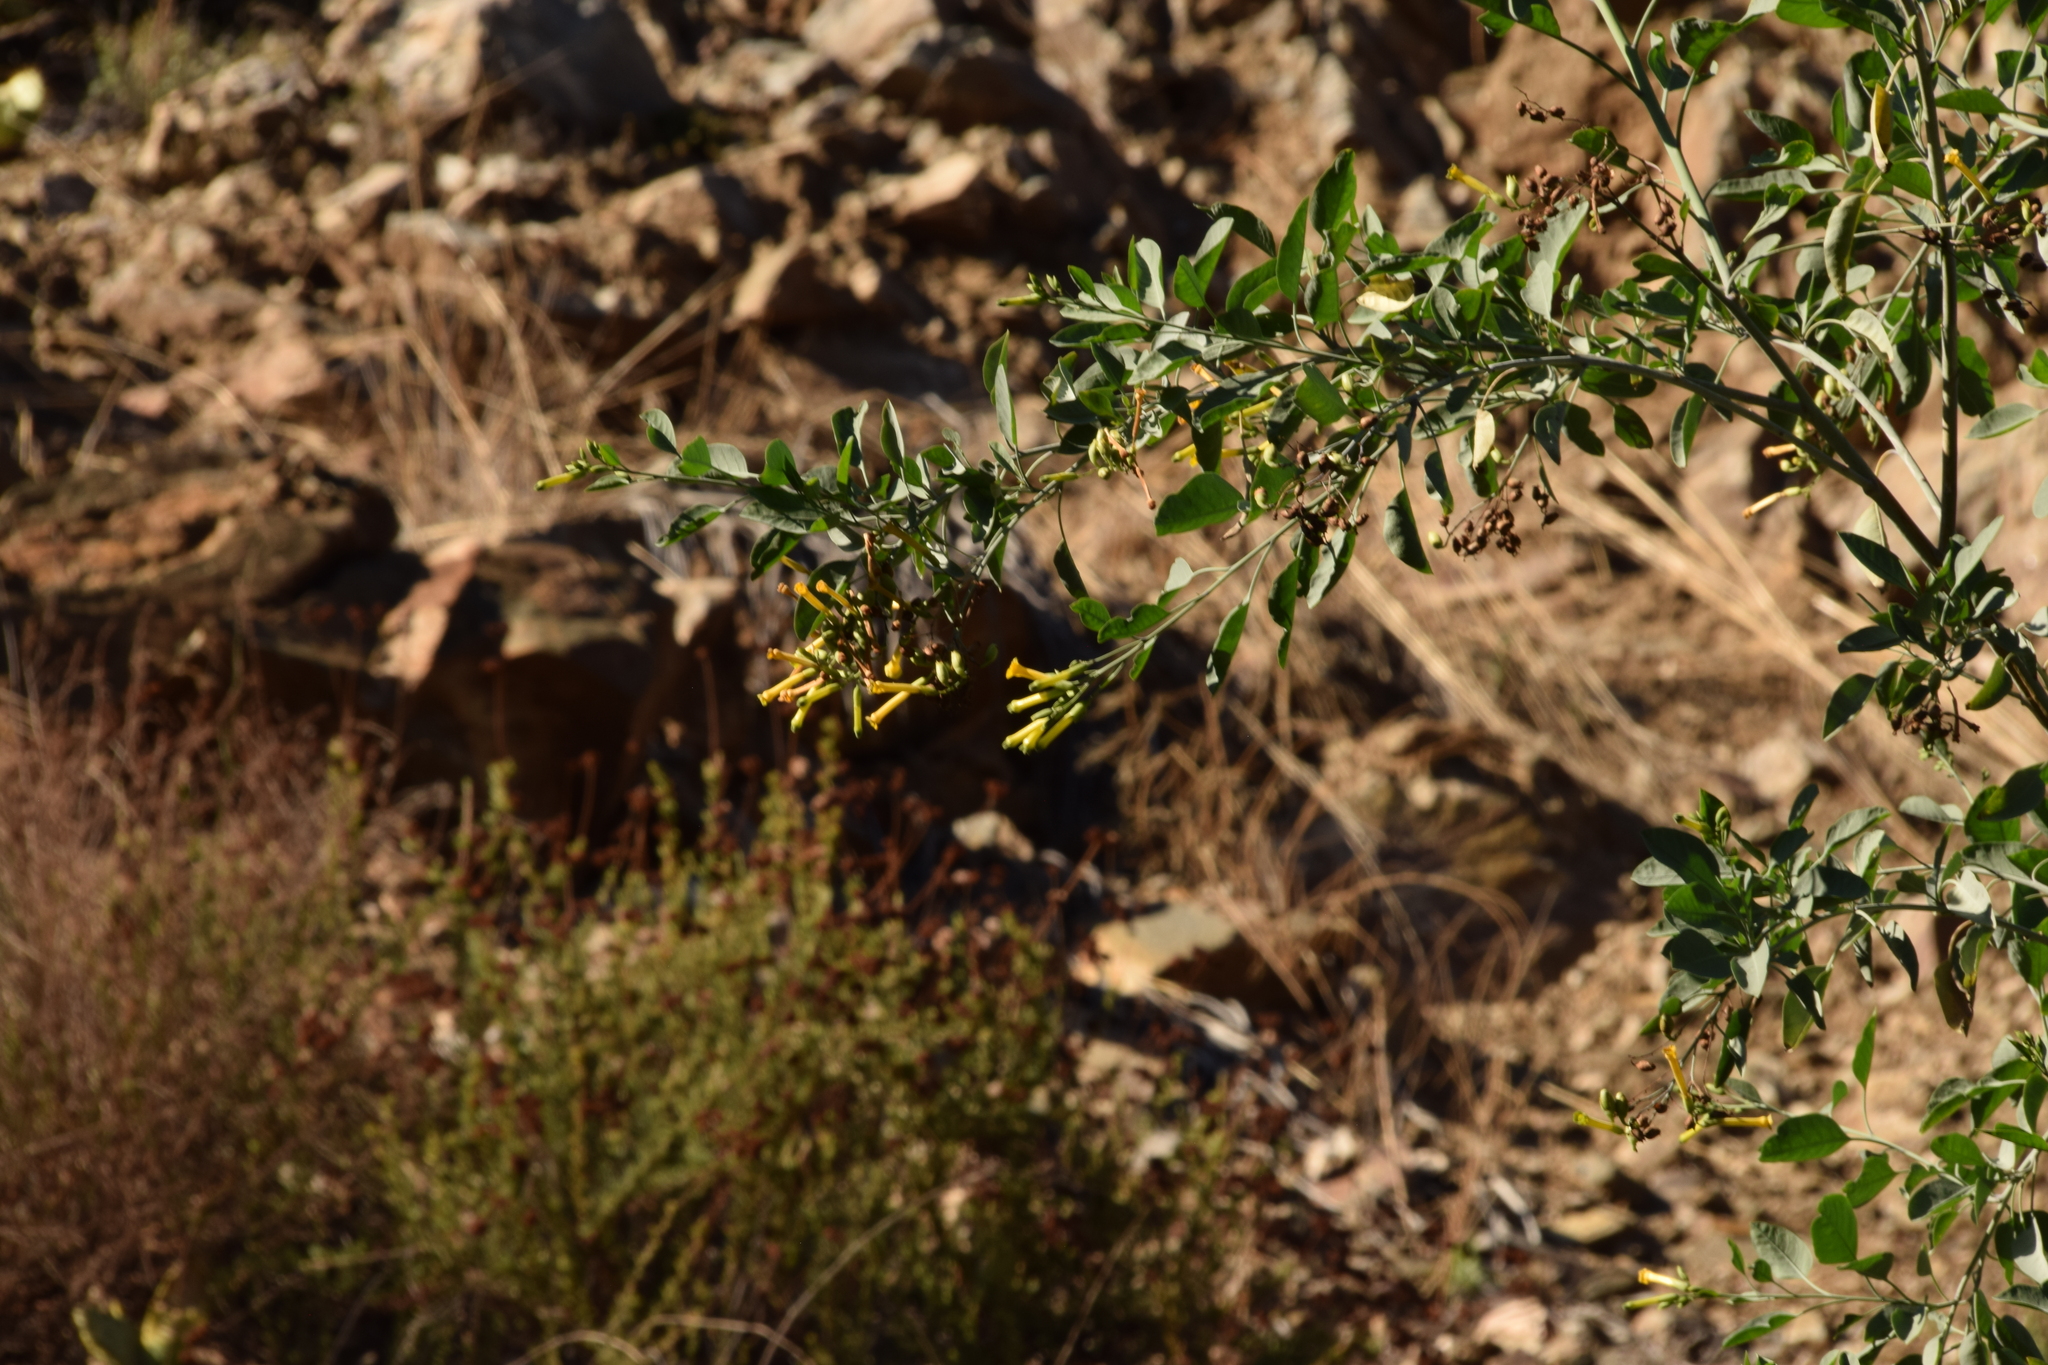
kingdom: Plantae
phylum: Tracheophyta
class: Magnoliopsida
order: Solanales
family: Solanaceae
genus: Nicotiana
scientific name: Nicotiana glauca
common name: Tree tobacco
